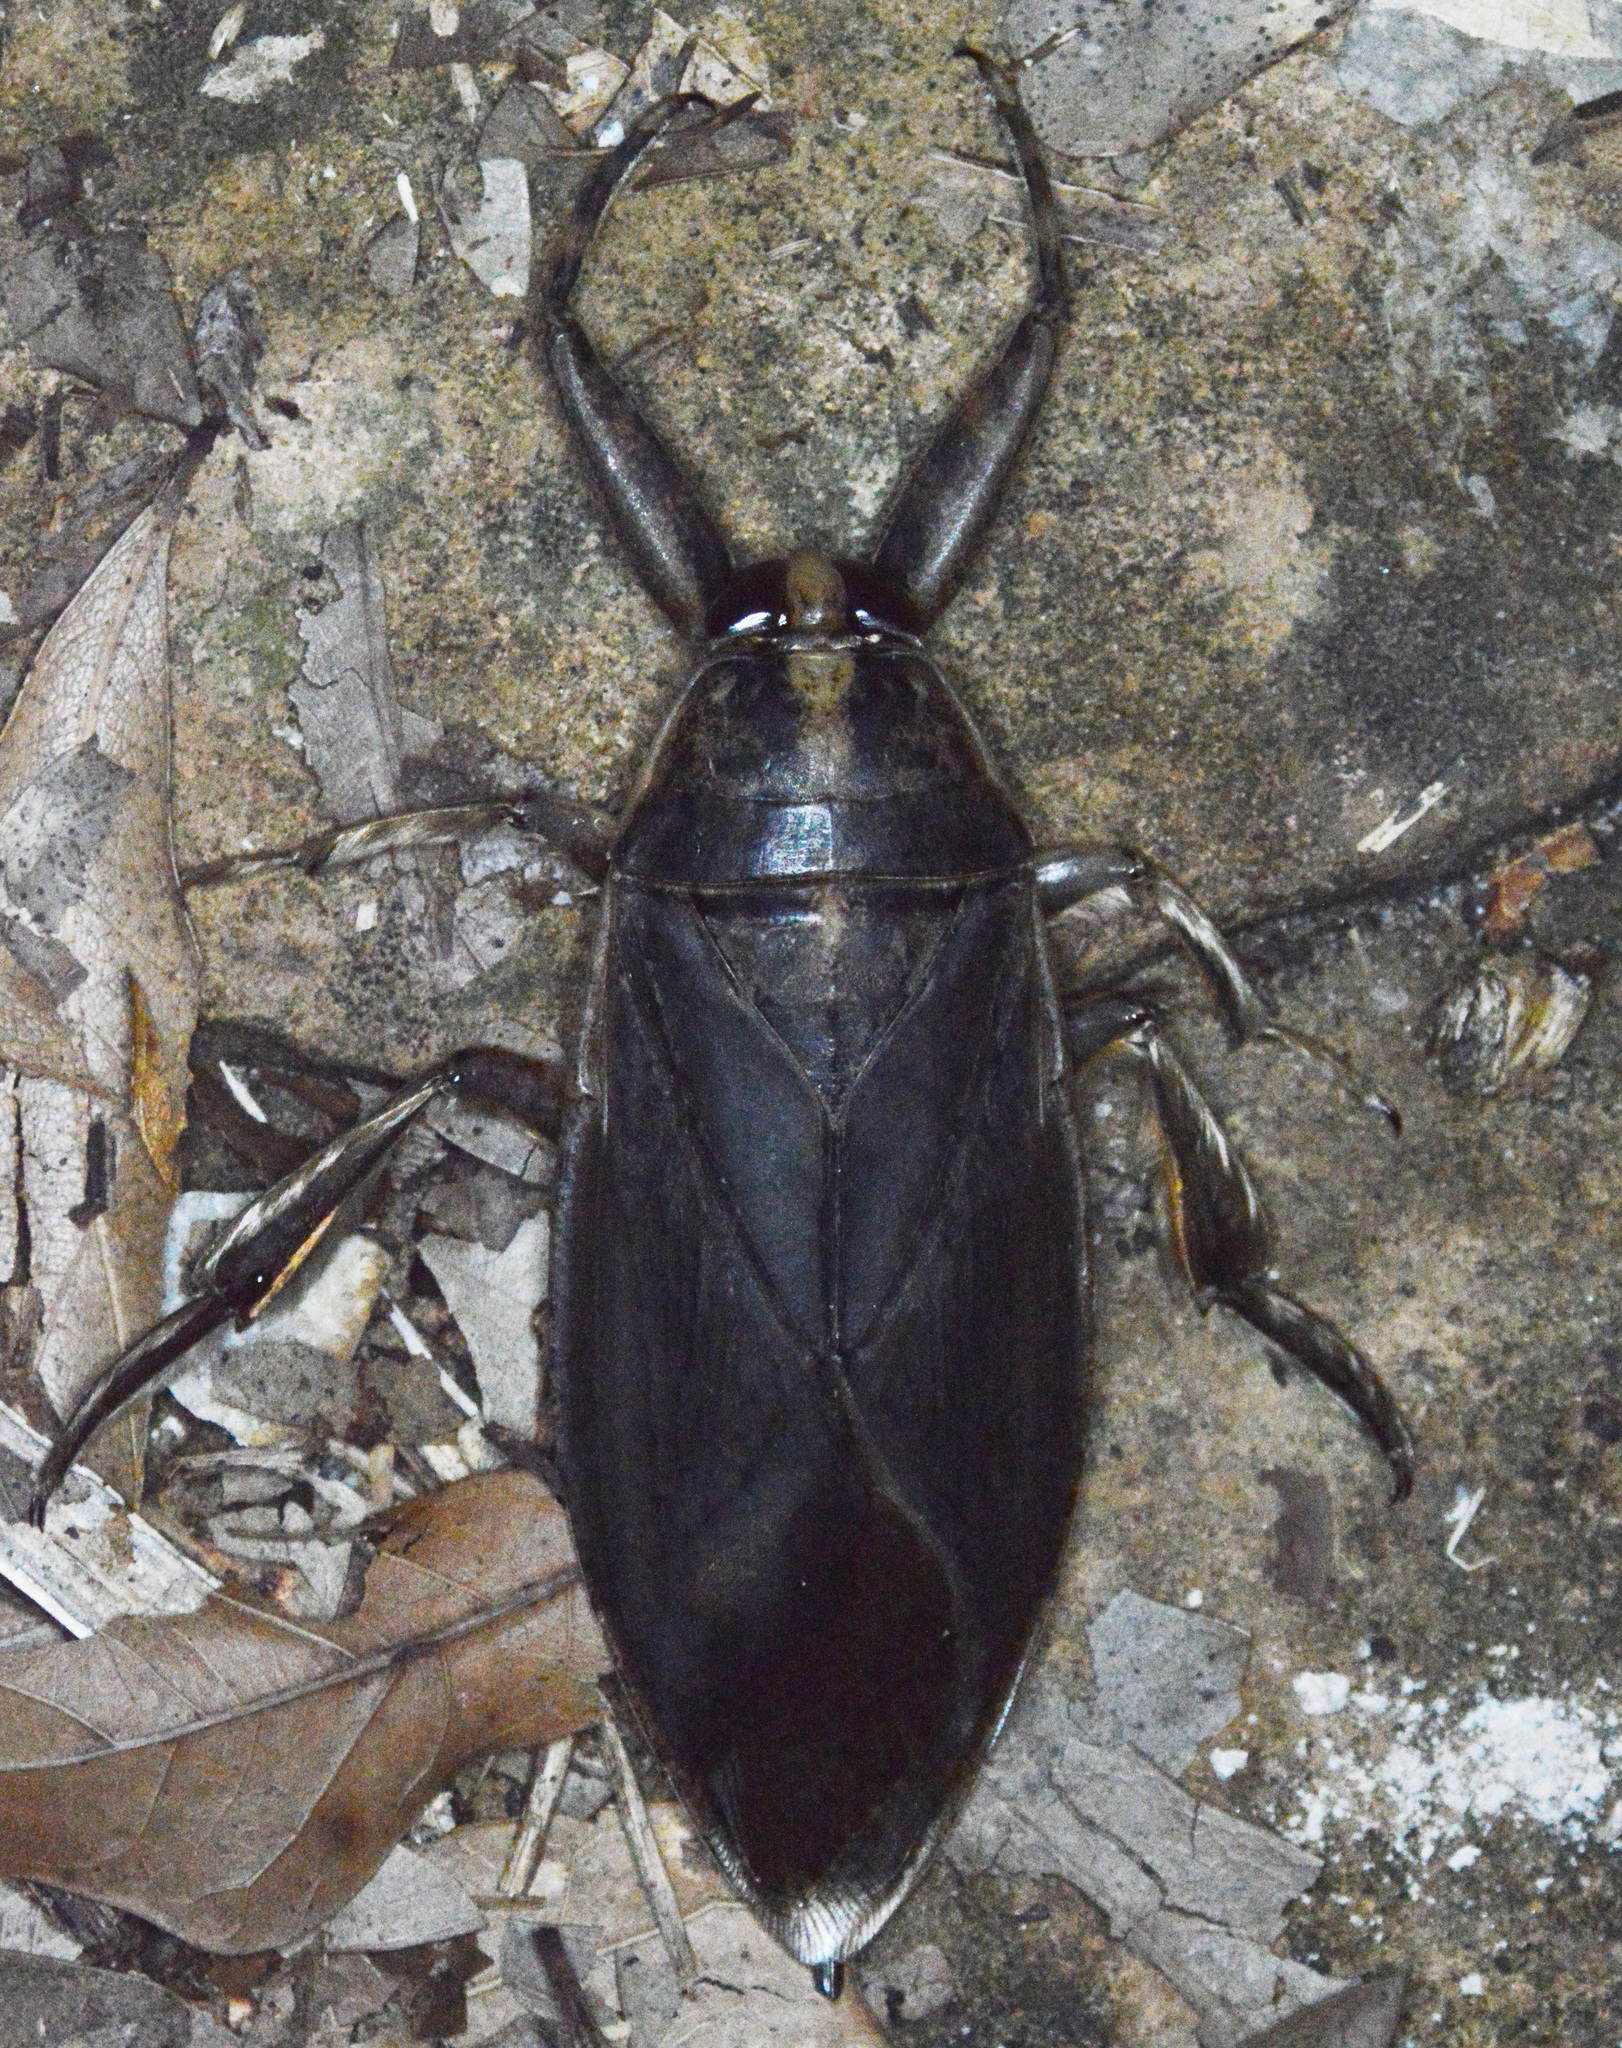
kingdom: Animalia
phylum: Arthropoda
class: Insecta
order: Hemiptera
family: Belostomatidae
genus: Benacus
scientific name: Benacus griseus
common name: Eastern toe-biter
